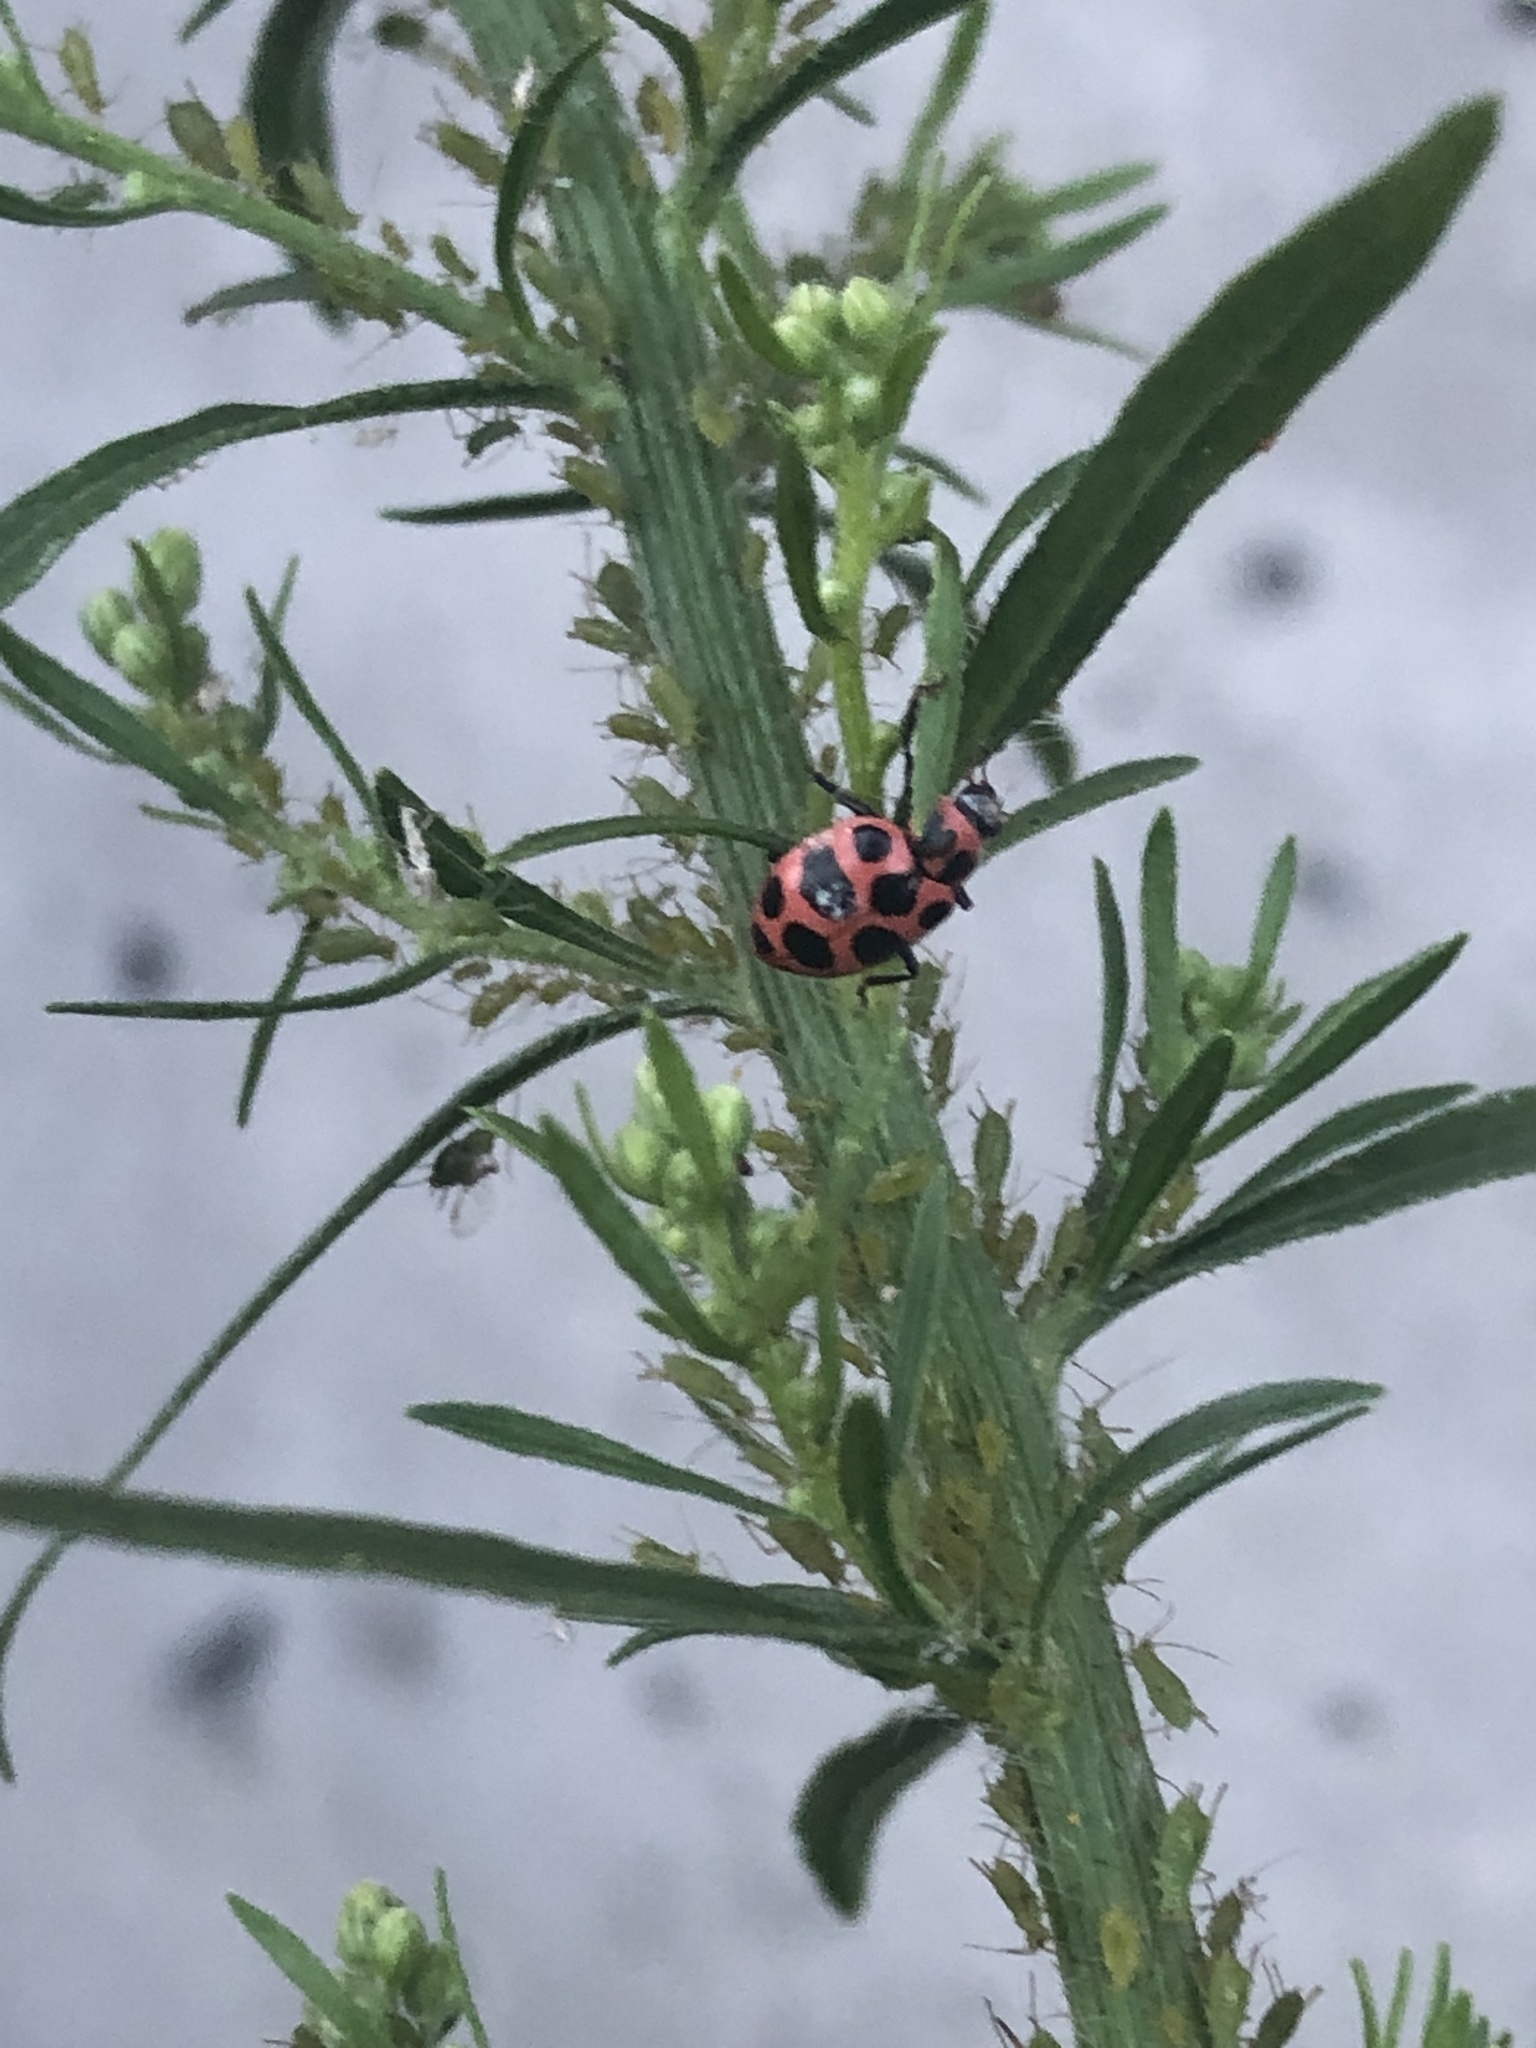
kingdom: Animalia
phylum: Arthropoda
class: Insecta
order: Coleoptera
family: Coccinellidae
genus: Coleomegilla
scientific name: Coleomegilla maculata
